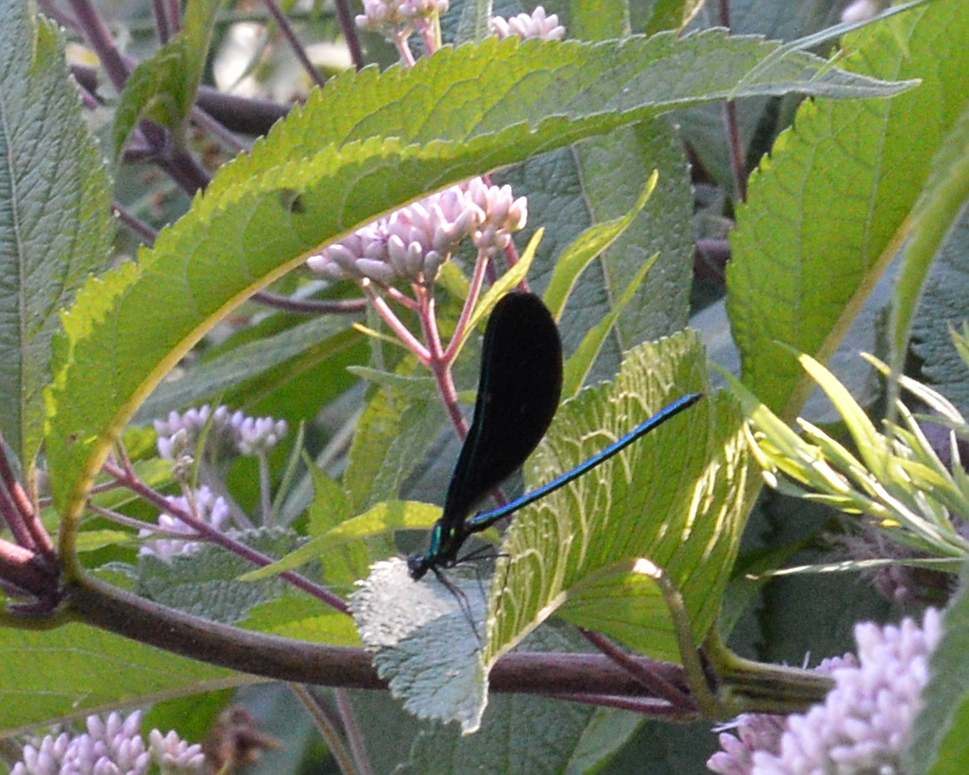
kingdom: Animalia
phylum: Arthropoda
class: Insecta
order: Odonata
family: Calopterygidae
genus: Calopteryx
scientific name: Calopteryx maculata
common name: Ebony jewelwing
